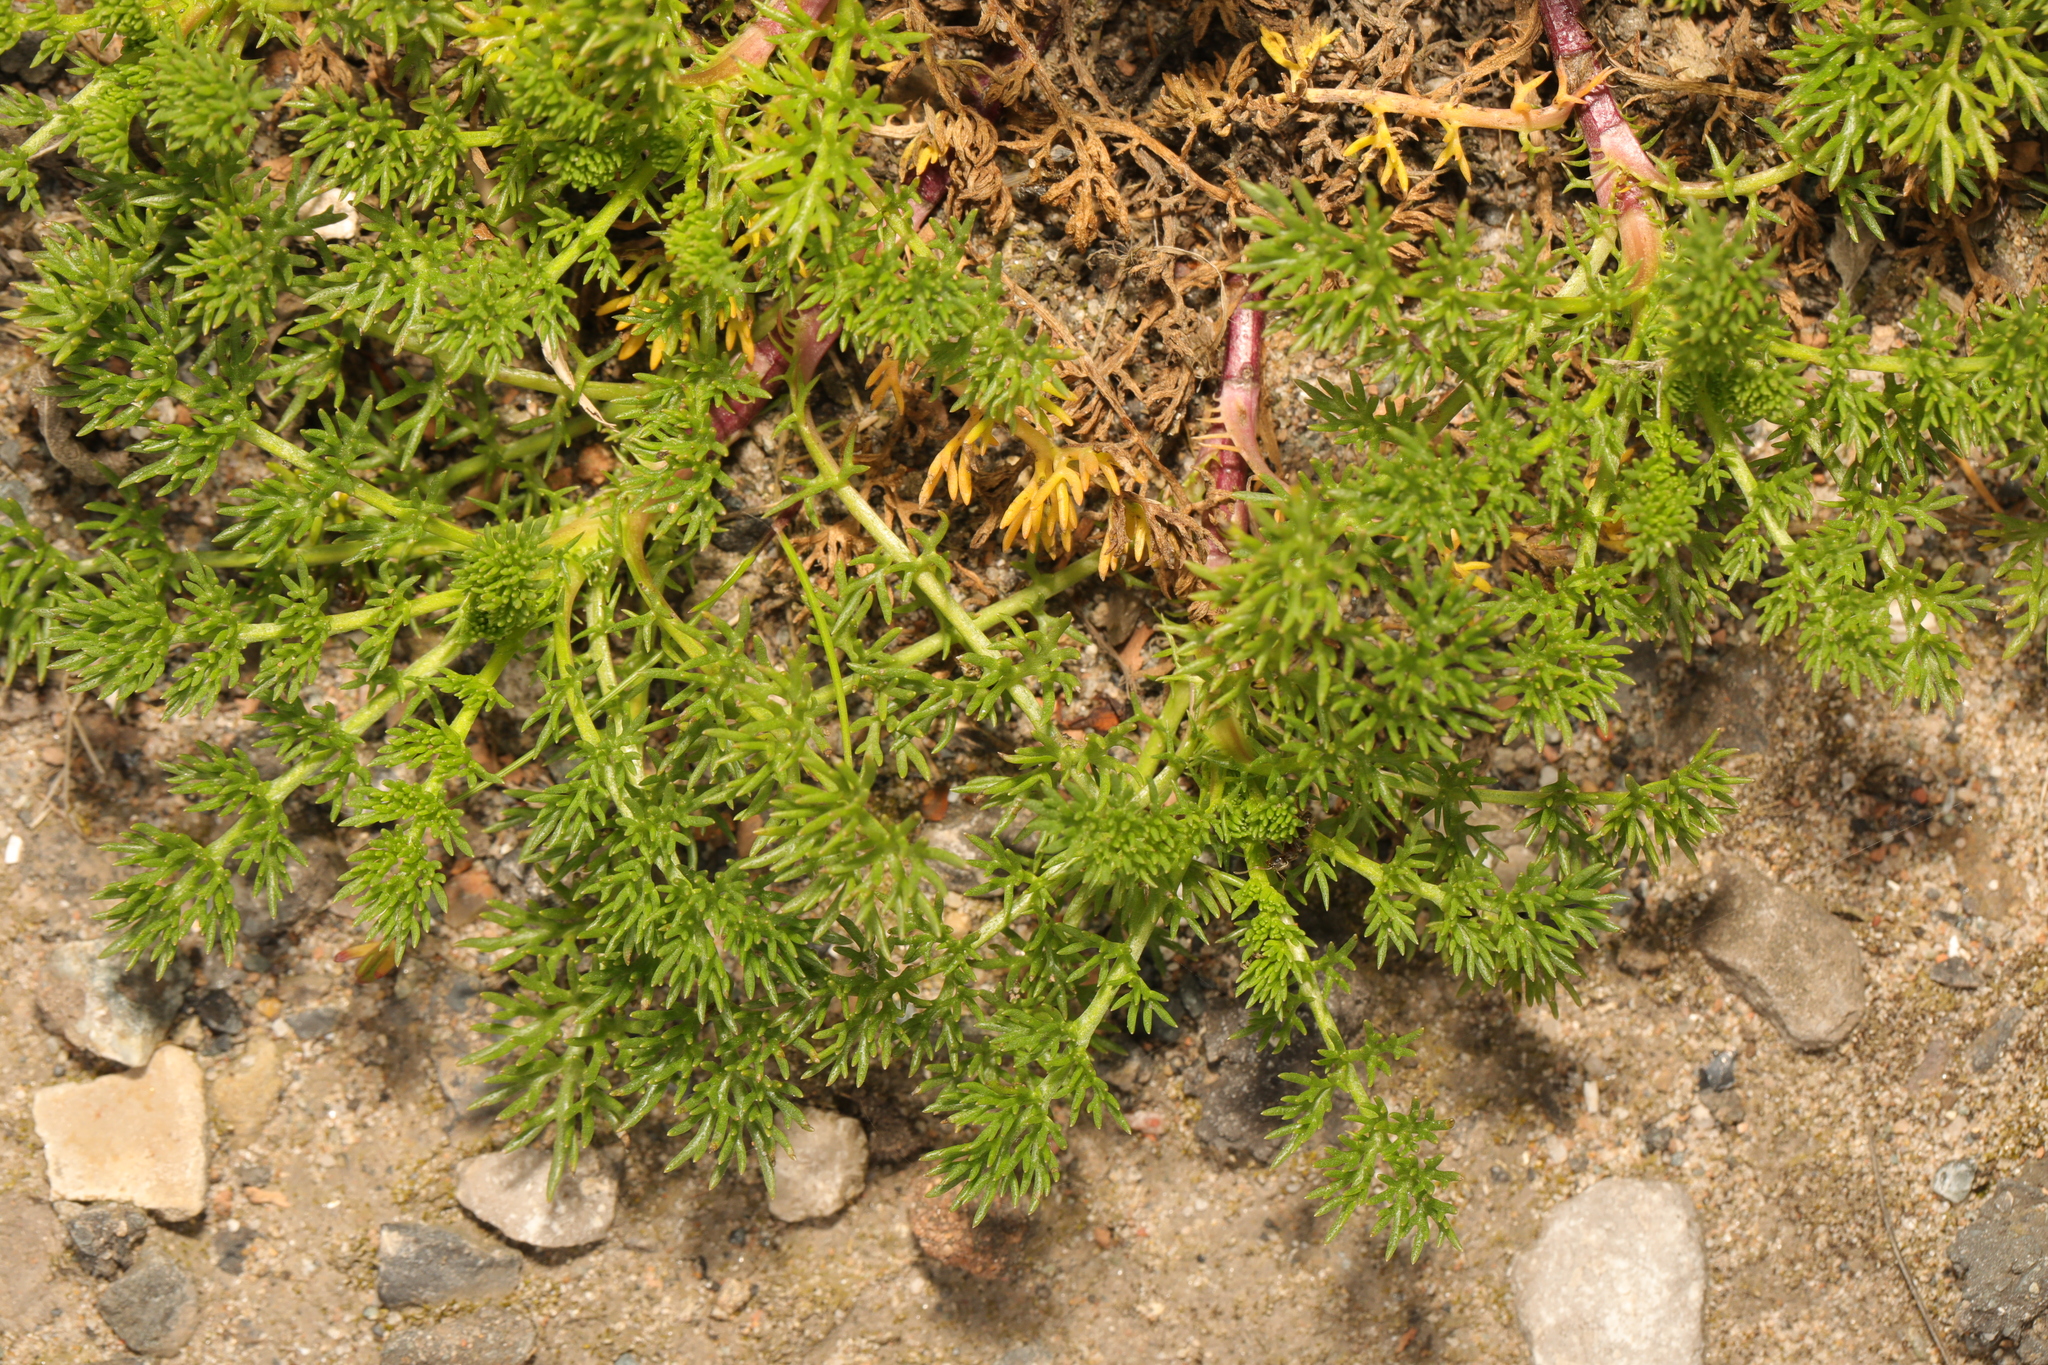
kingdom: Plantae
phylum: Tracheophyta
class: Magnoliopsida
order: Asterales
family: Asteraceae
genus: Tripleurospermum
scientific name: Tripleurospermum maritimum
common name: Sea mayweed
